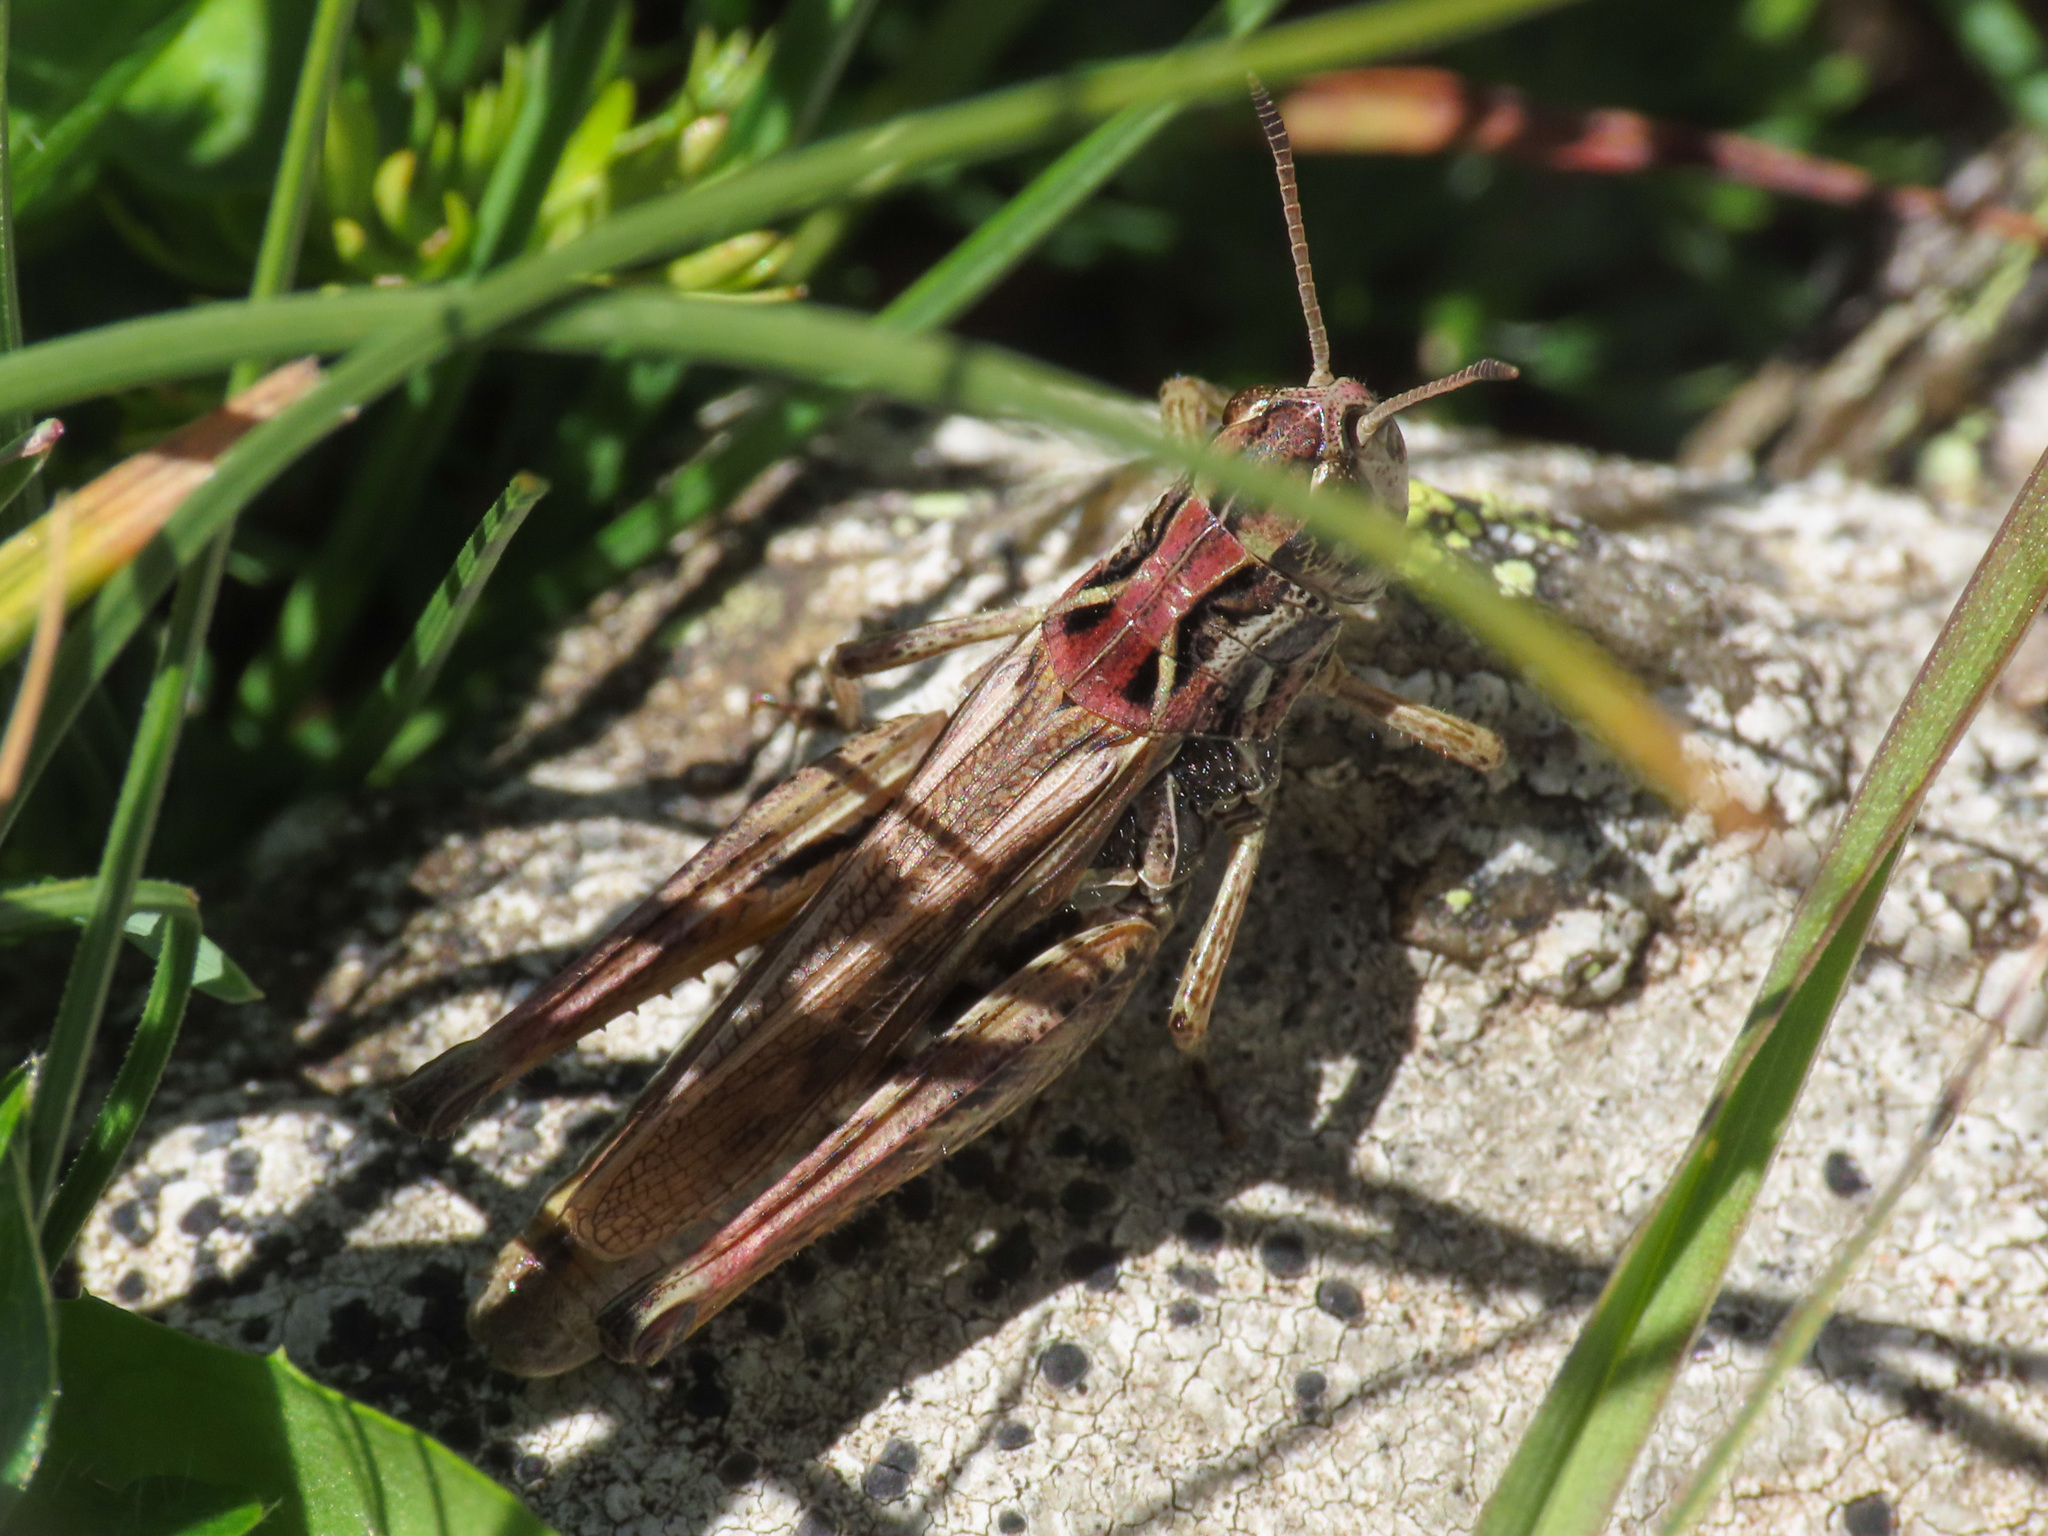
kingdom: Animalia
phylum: Arthropoda
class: Insecta
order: Orthoptera
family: Acrididae
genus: Gomphocerus
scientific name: Gomphocerus sibiricus
